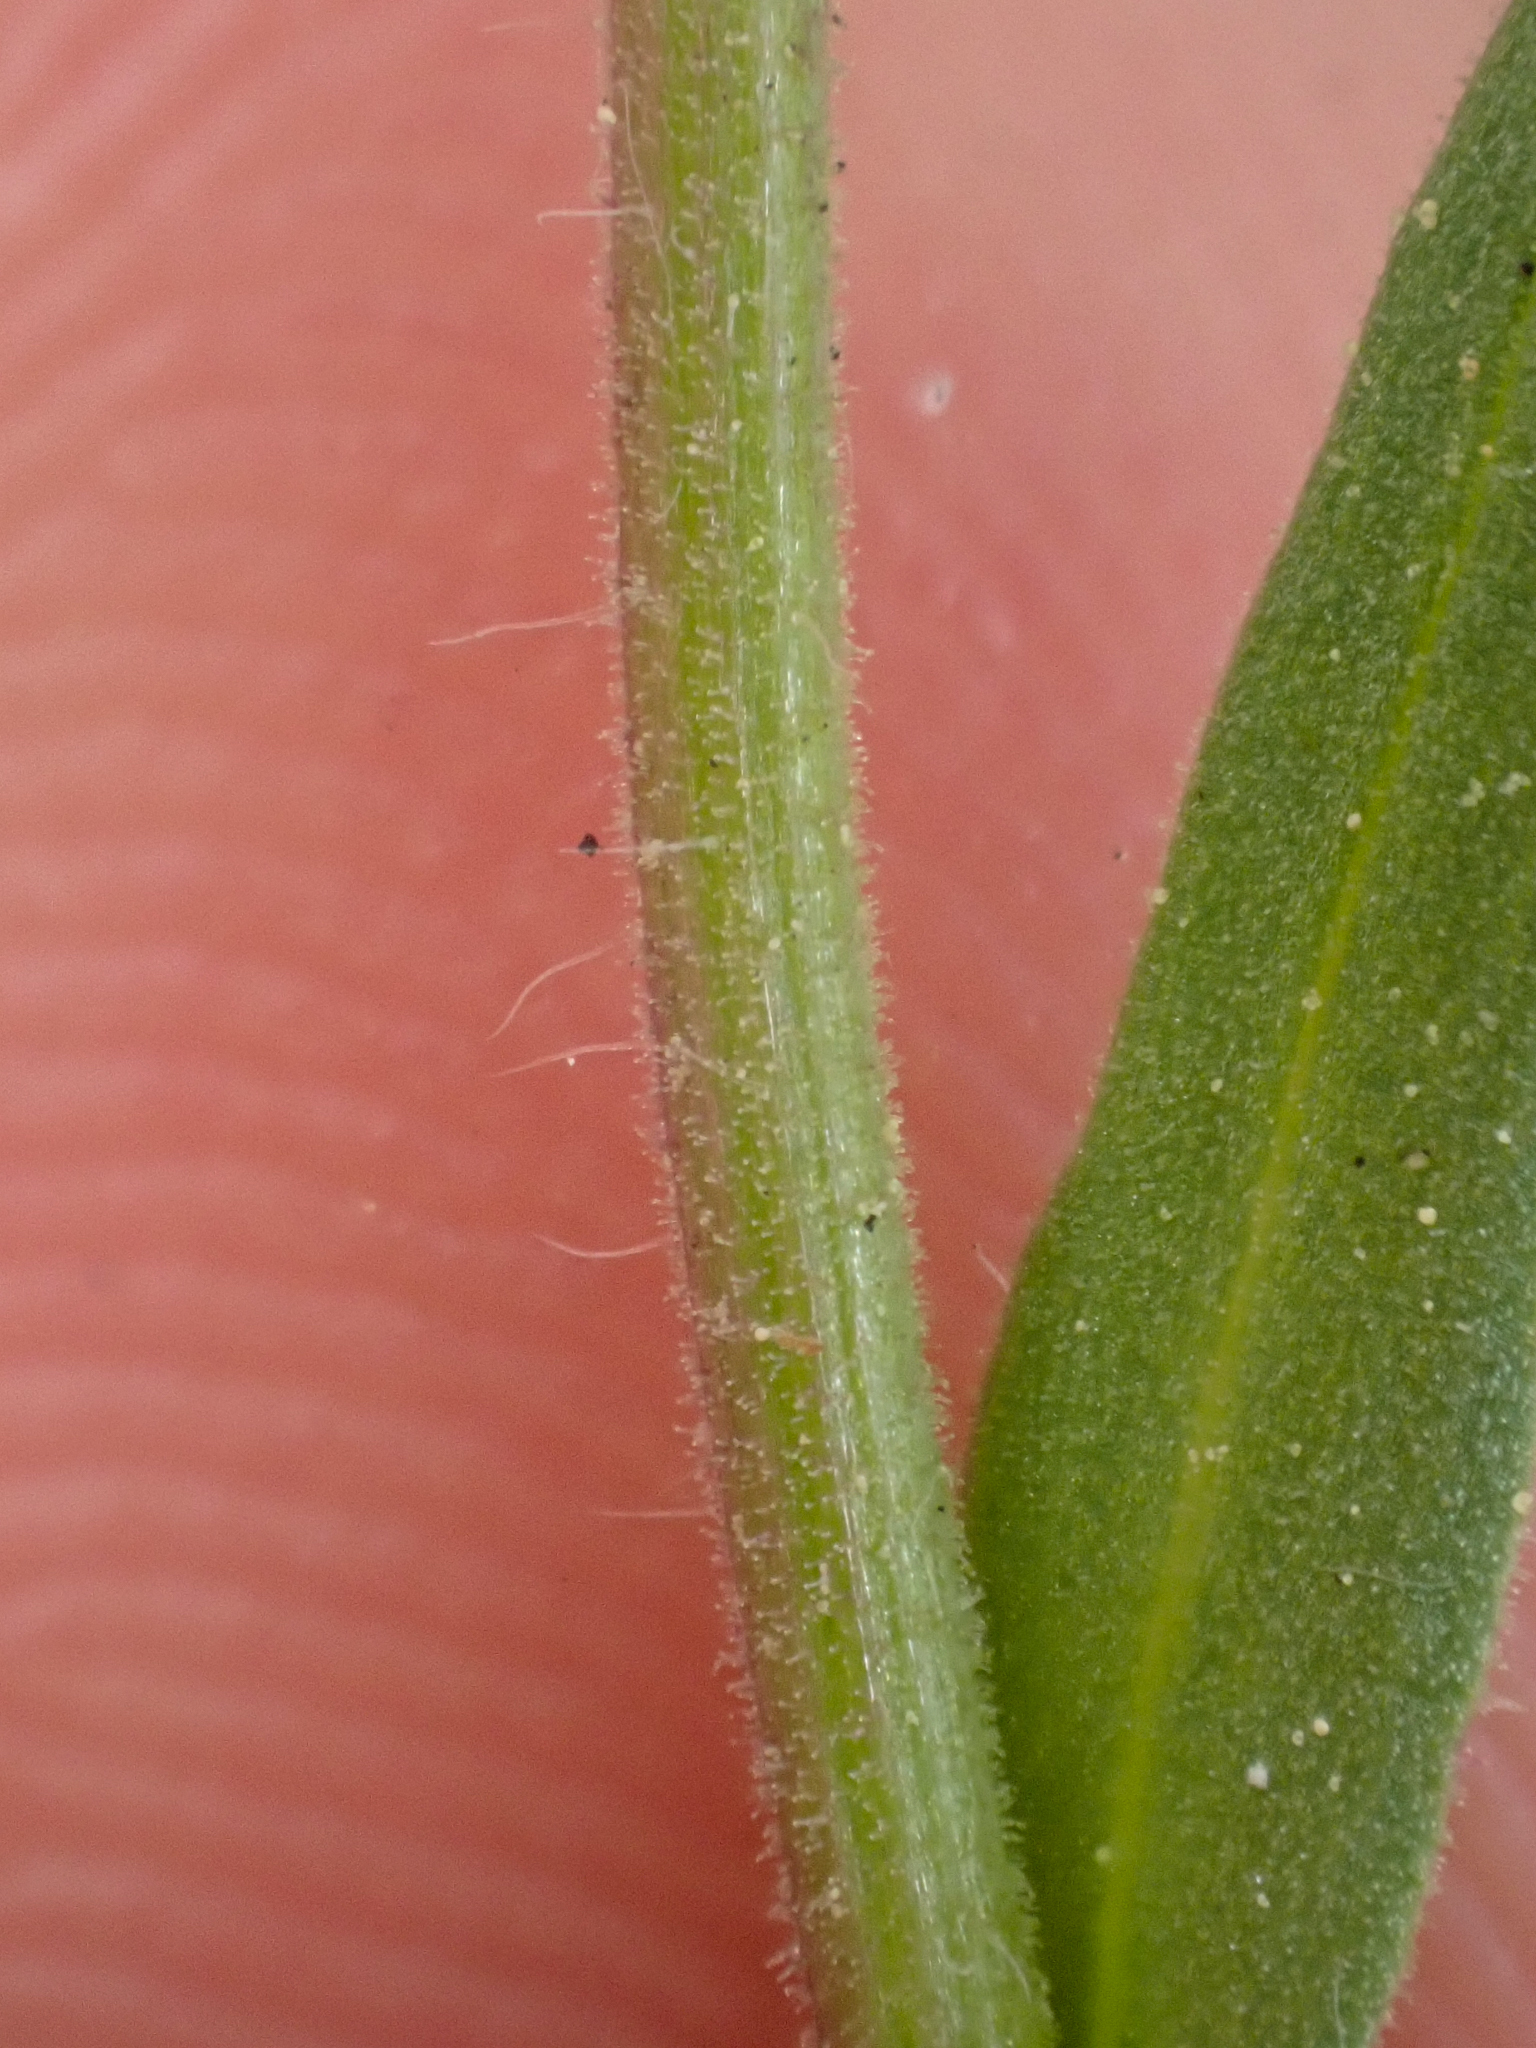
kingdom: Plantae
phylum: Tracheophyta
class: Magnoliopsida
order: Asterales
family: Asteraceae
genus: Erigeron
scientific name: Erigeron nivalis
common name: Snow fleabane
